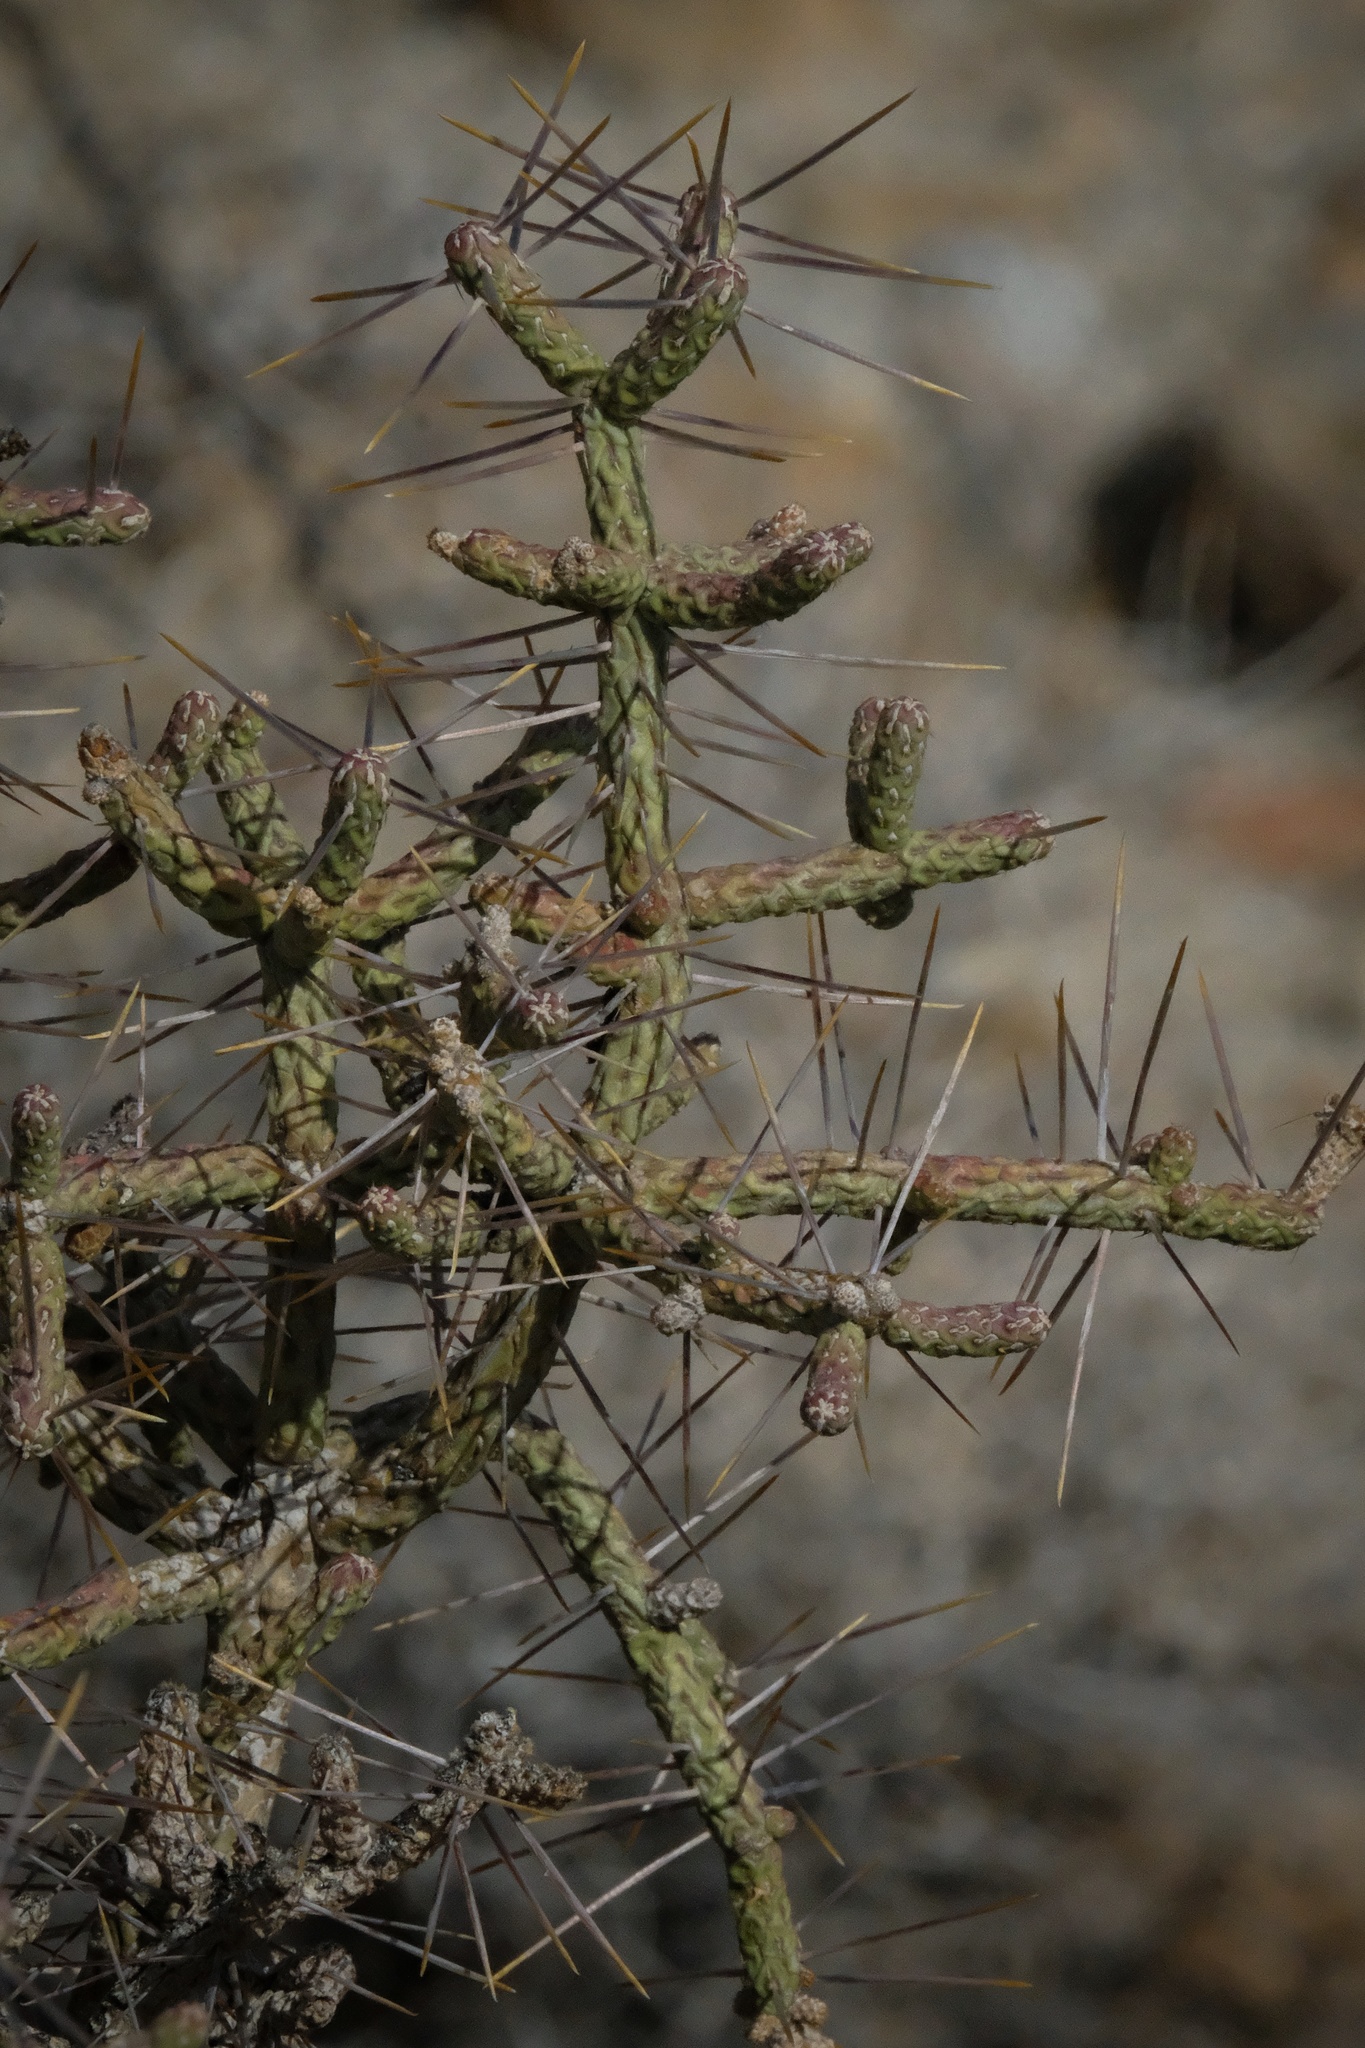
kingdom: Plantae
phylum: Tracheophyta
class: Magnoliopsida
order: Caryophyllales
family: Cactaceae
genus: Cylindropuntia
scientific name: Cylindropuntia ramosissima
